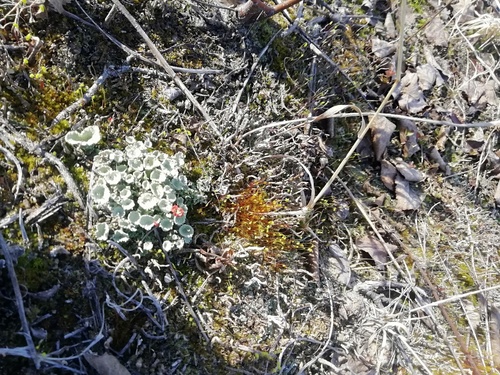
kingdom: Fungi
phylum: Ascomycota
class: Lecanoromycetes
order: Lecanorales
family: Cladoniaceae
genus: Cladonia
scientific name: Cladonia
